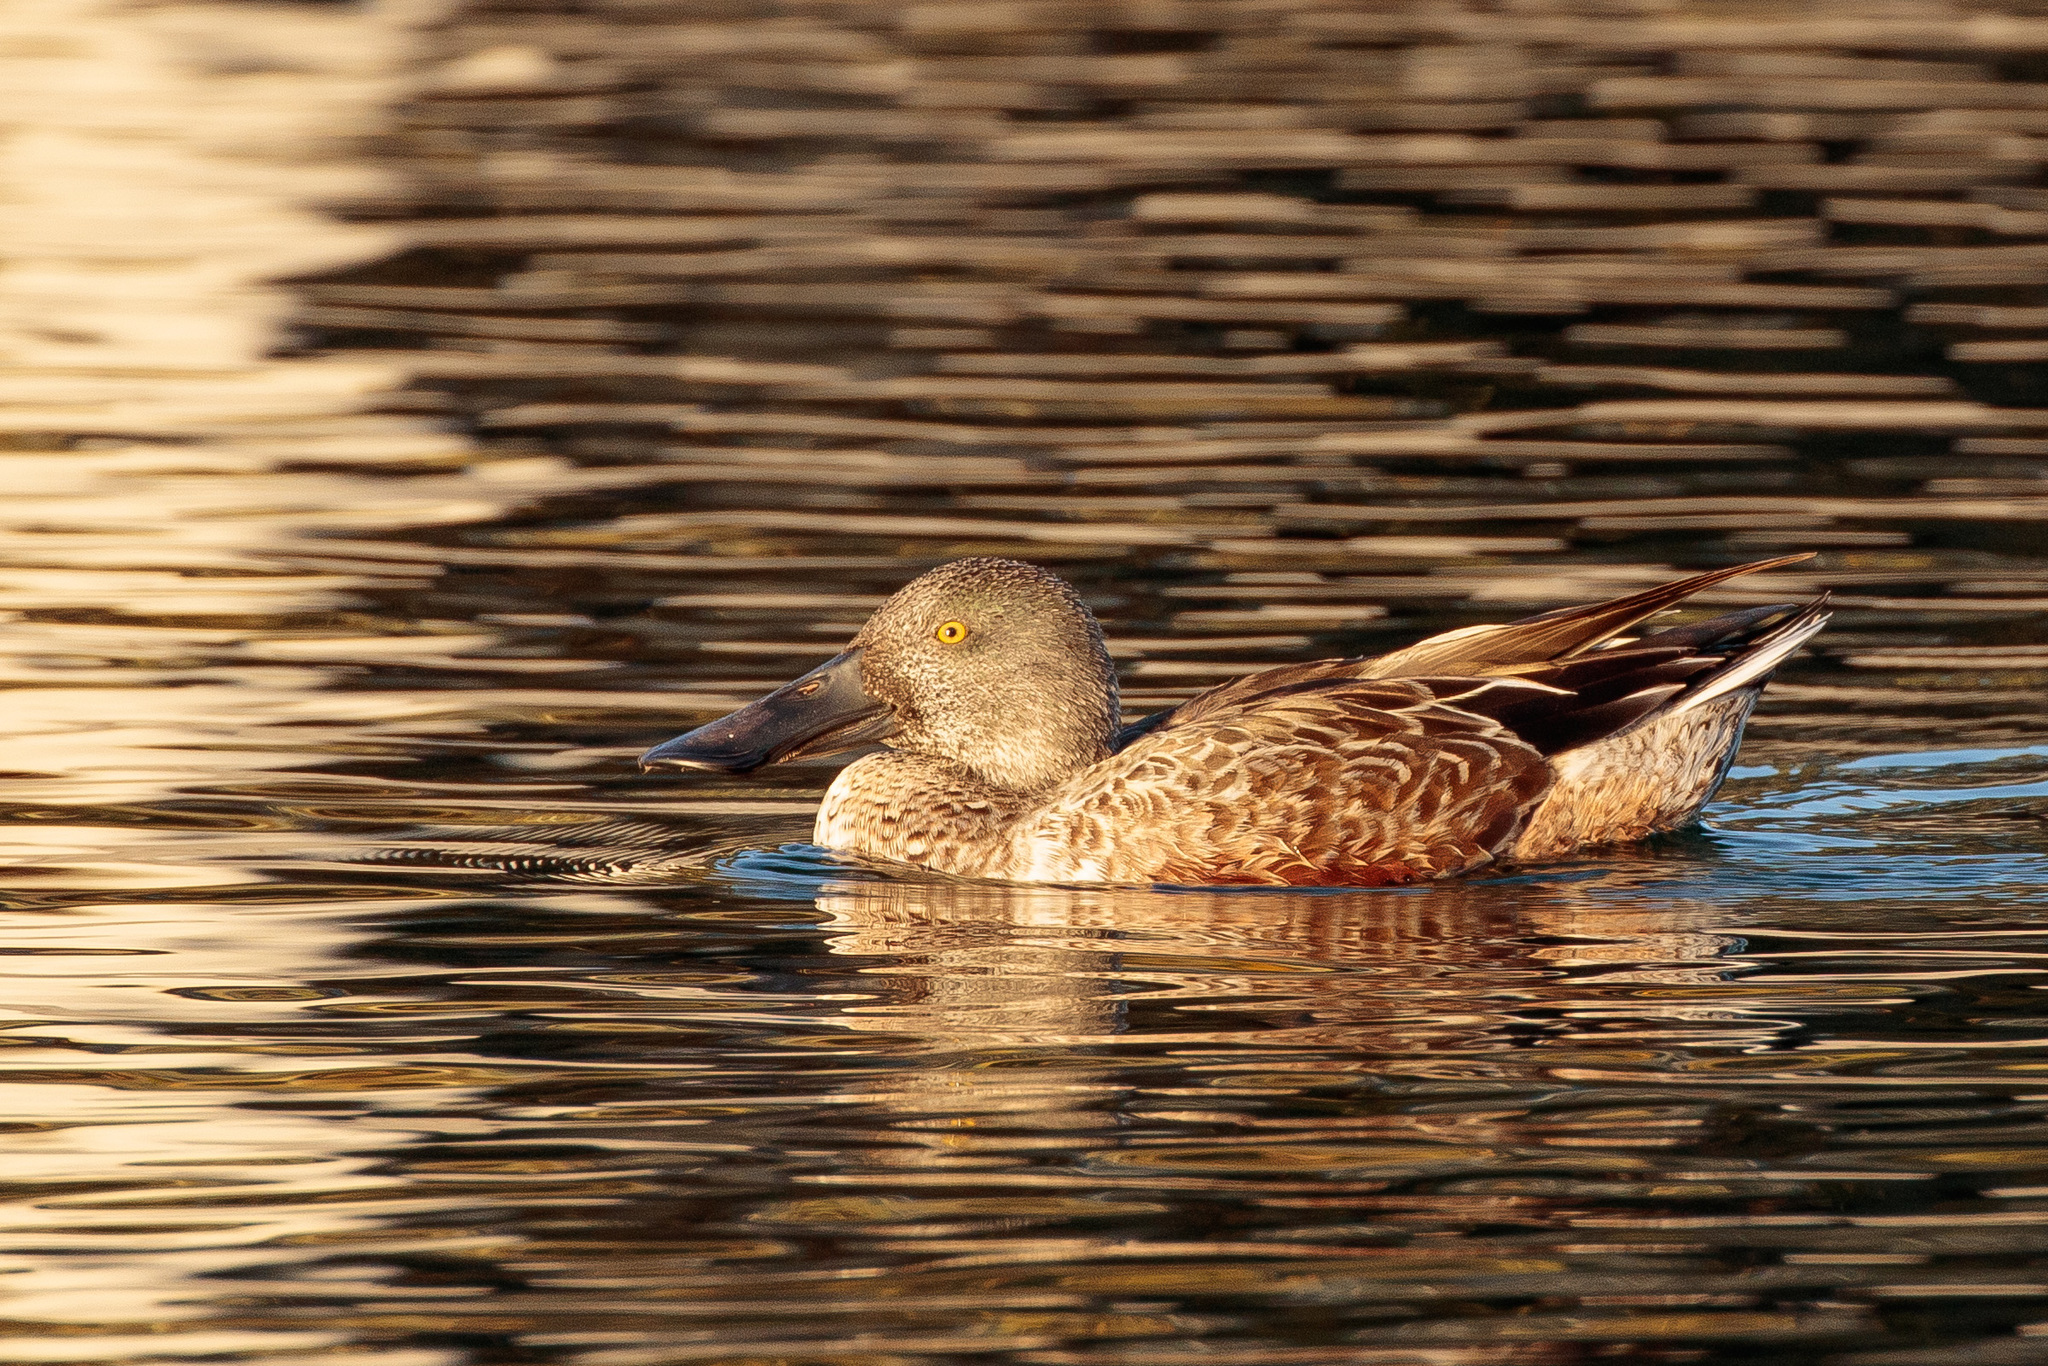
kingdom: Animalia
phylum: Chordata
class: Aves
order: Anseriformes
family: Anatidae
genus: Spatula
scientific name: Spatula clypeata
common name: Northern shoveler
